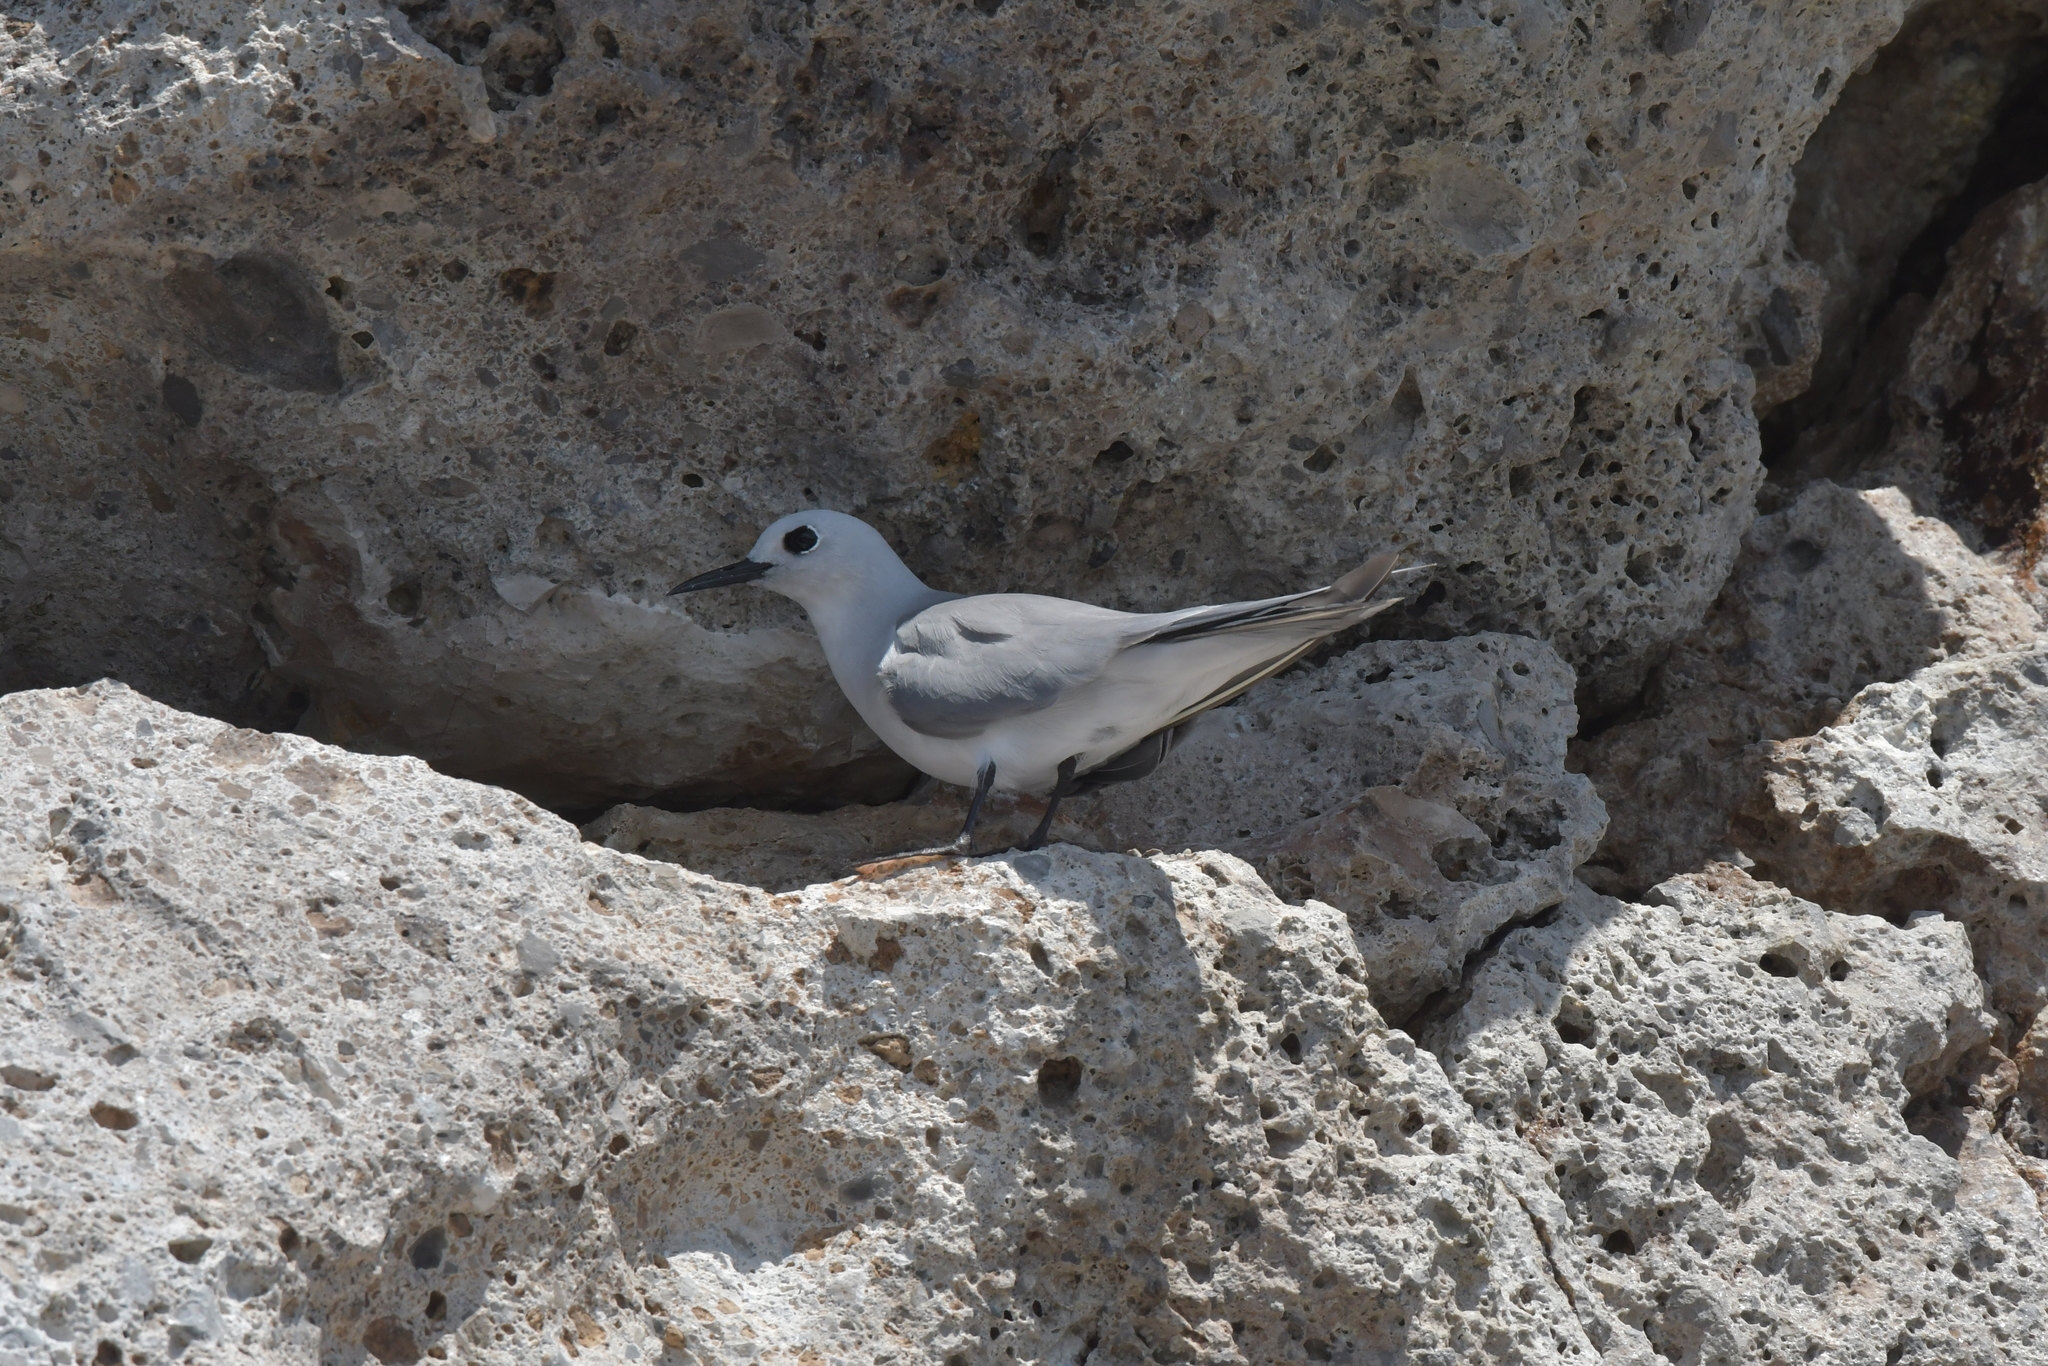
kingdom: Animalia
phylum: Chordata
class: Aves
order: Charadriiformes
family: Laridae
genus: Anous
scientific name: Anous albivitta
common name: Gray noddy
